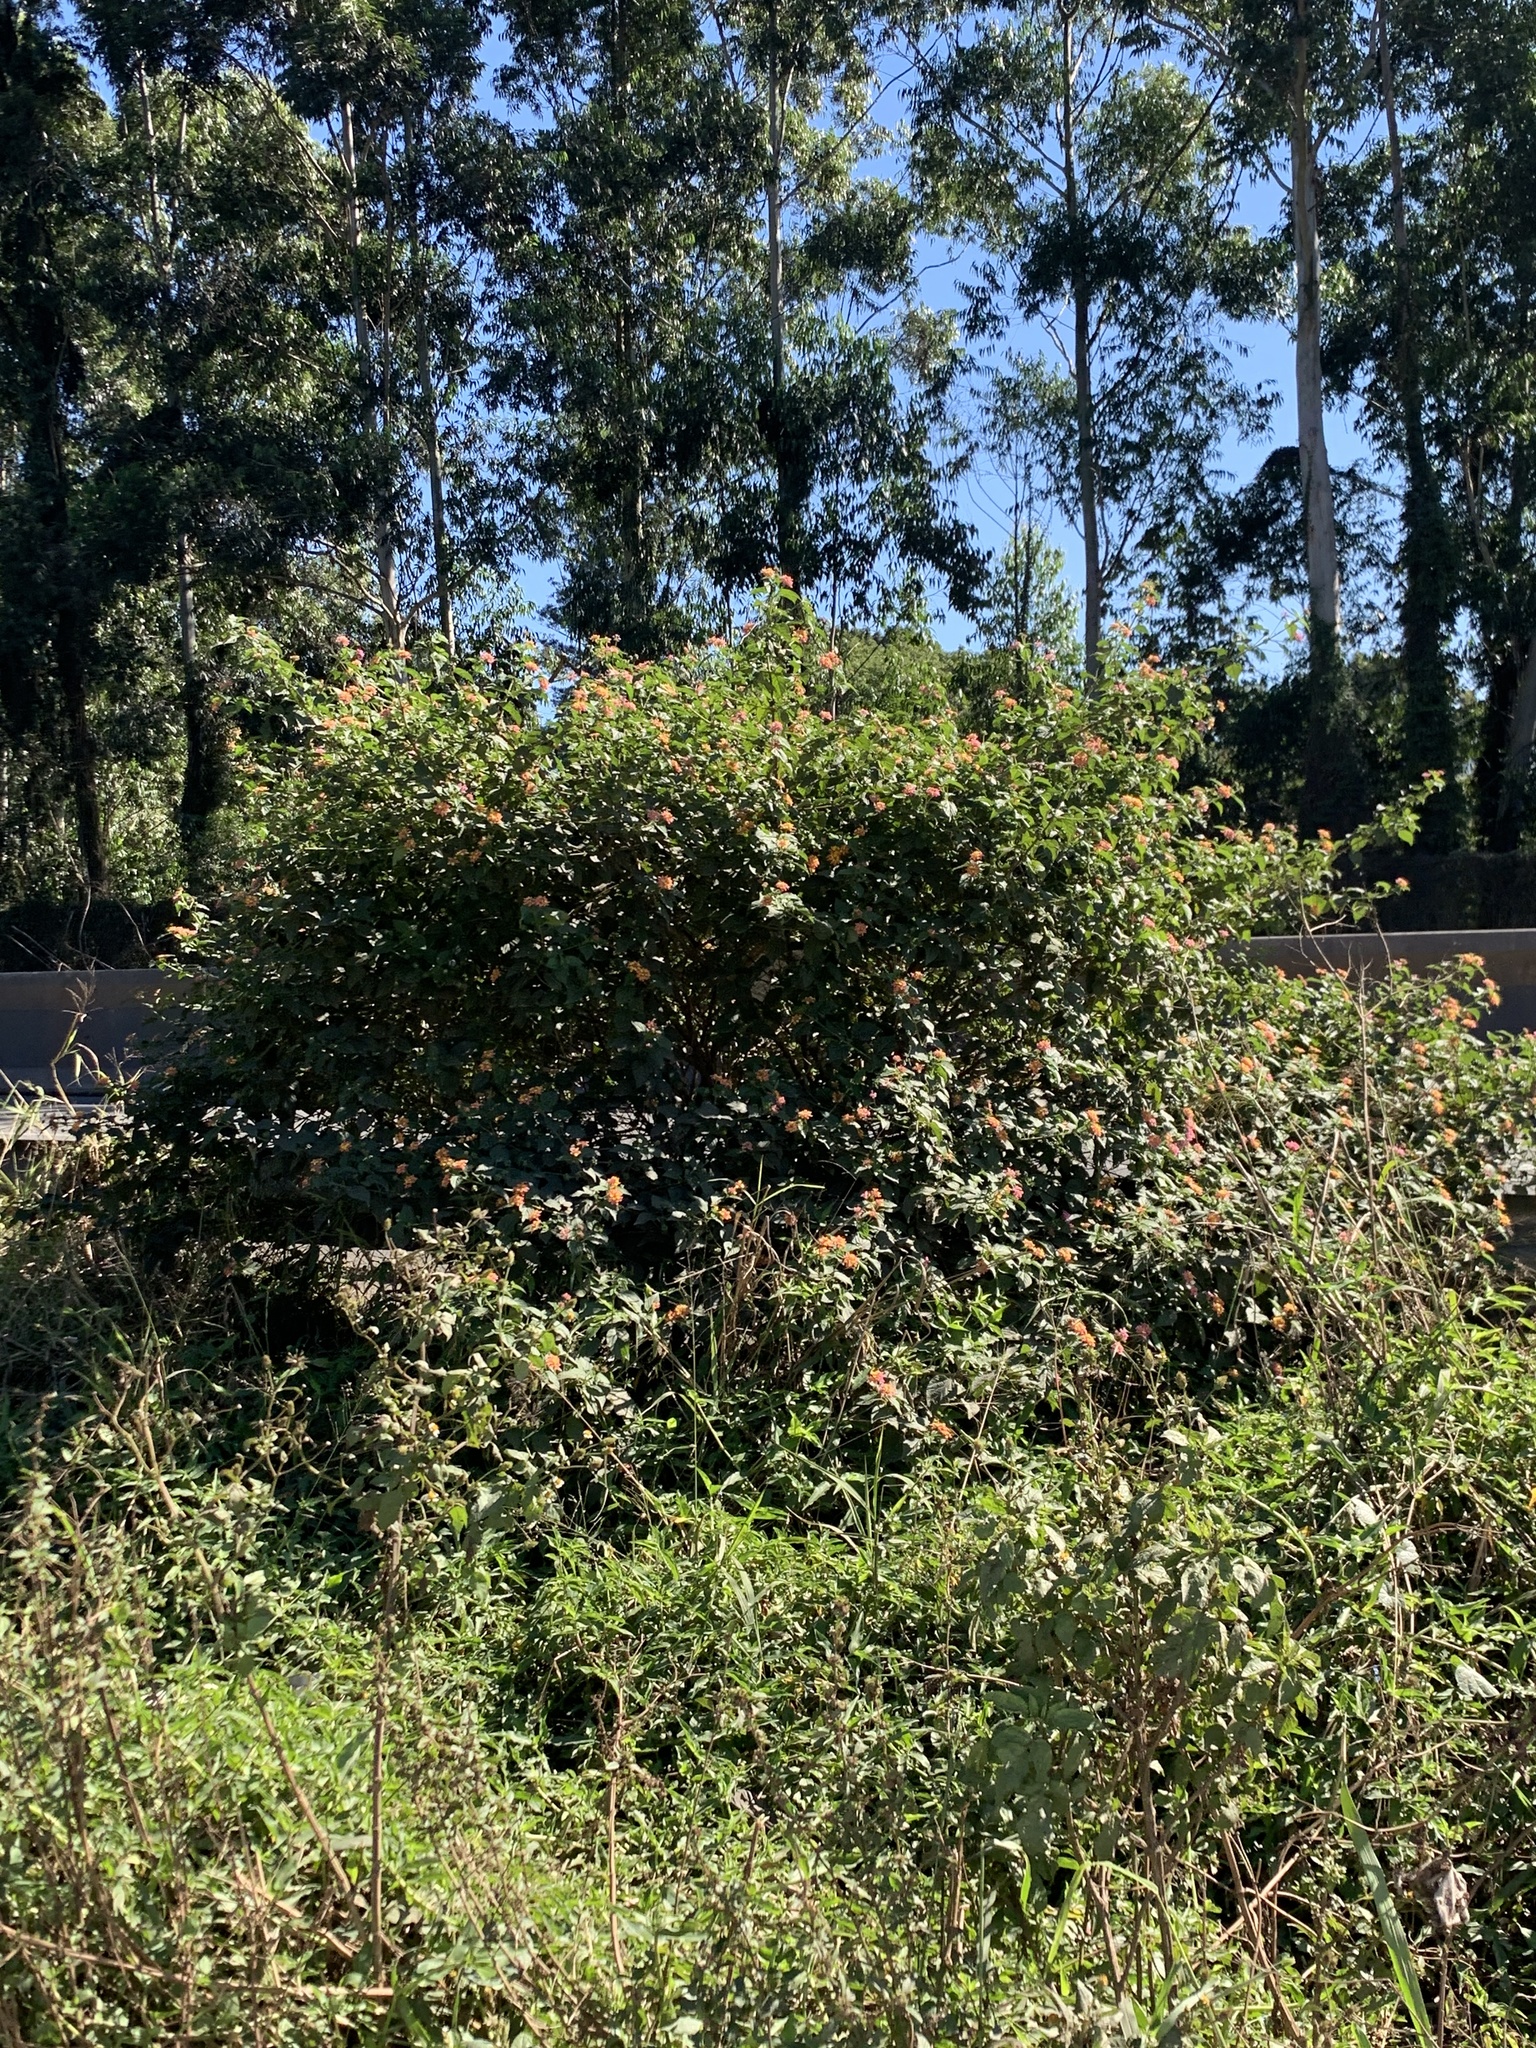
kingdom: Plantae
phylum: Tracheophyta
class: Magnoliopsida
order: Lamiales
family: Verbenaceae
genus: Lantana
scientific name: Lantana camara
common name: Lantana
